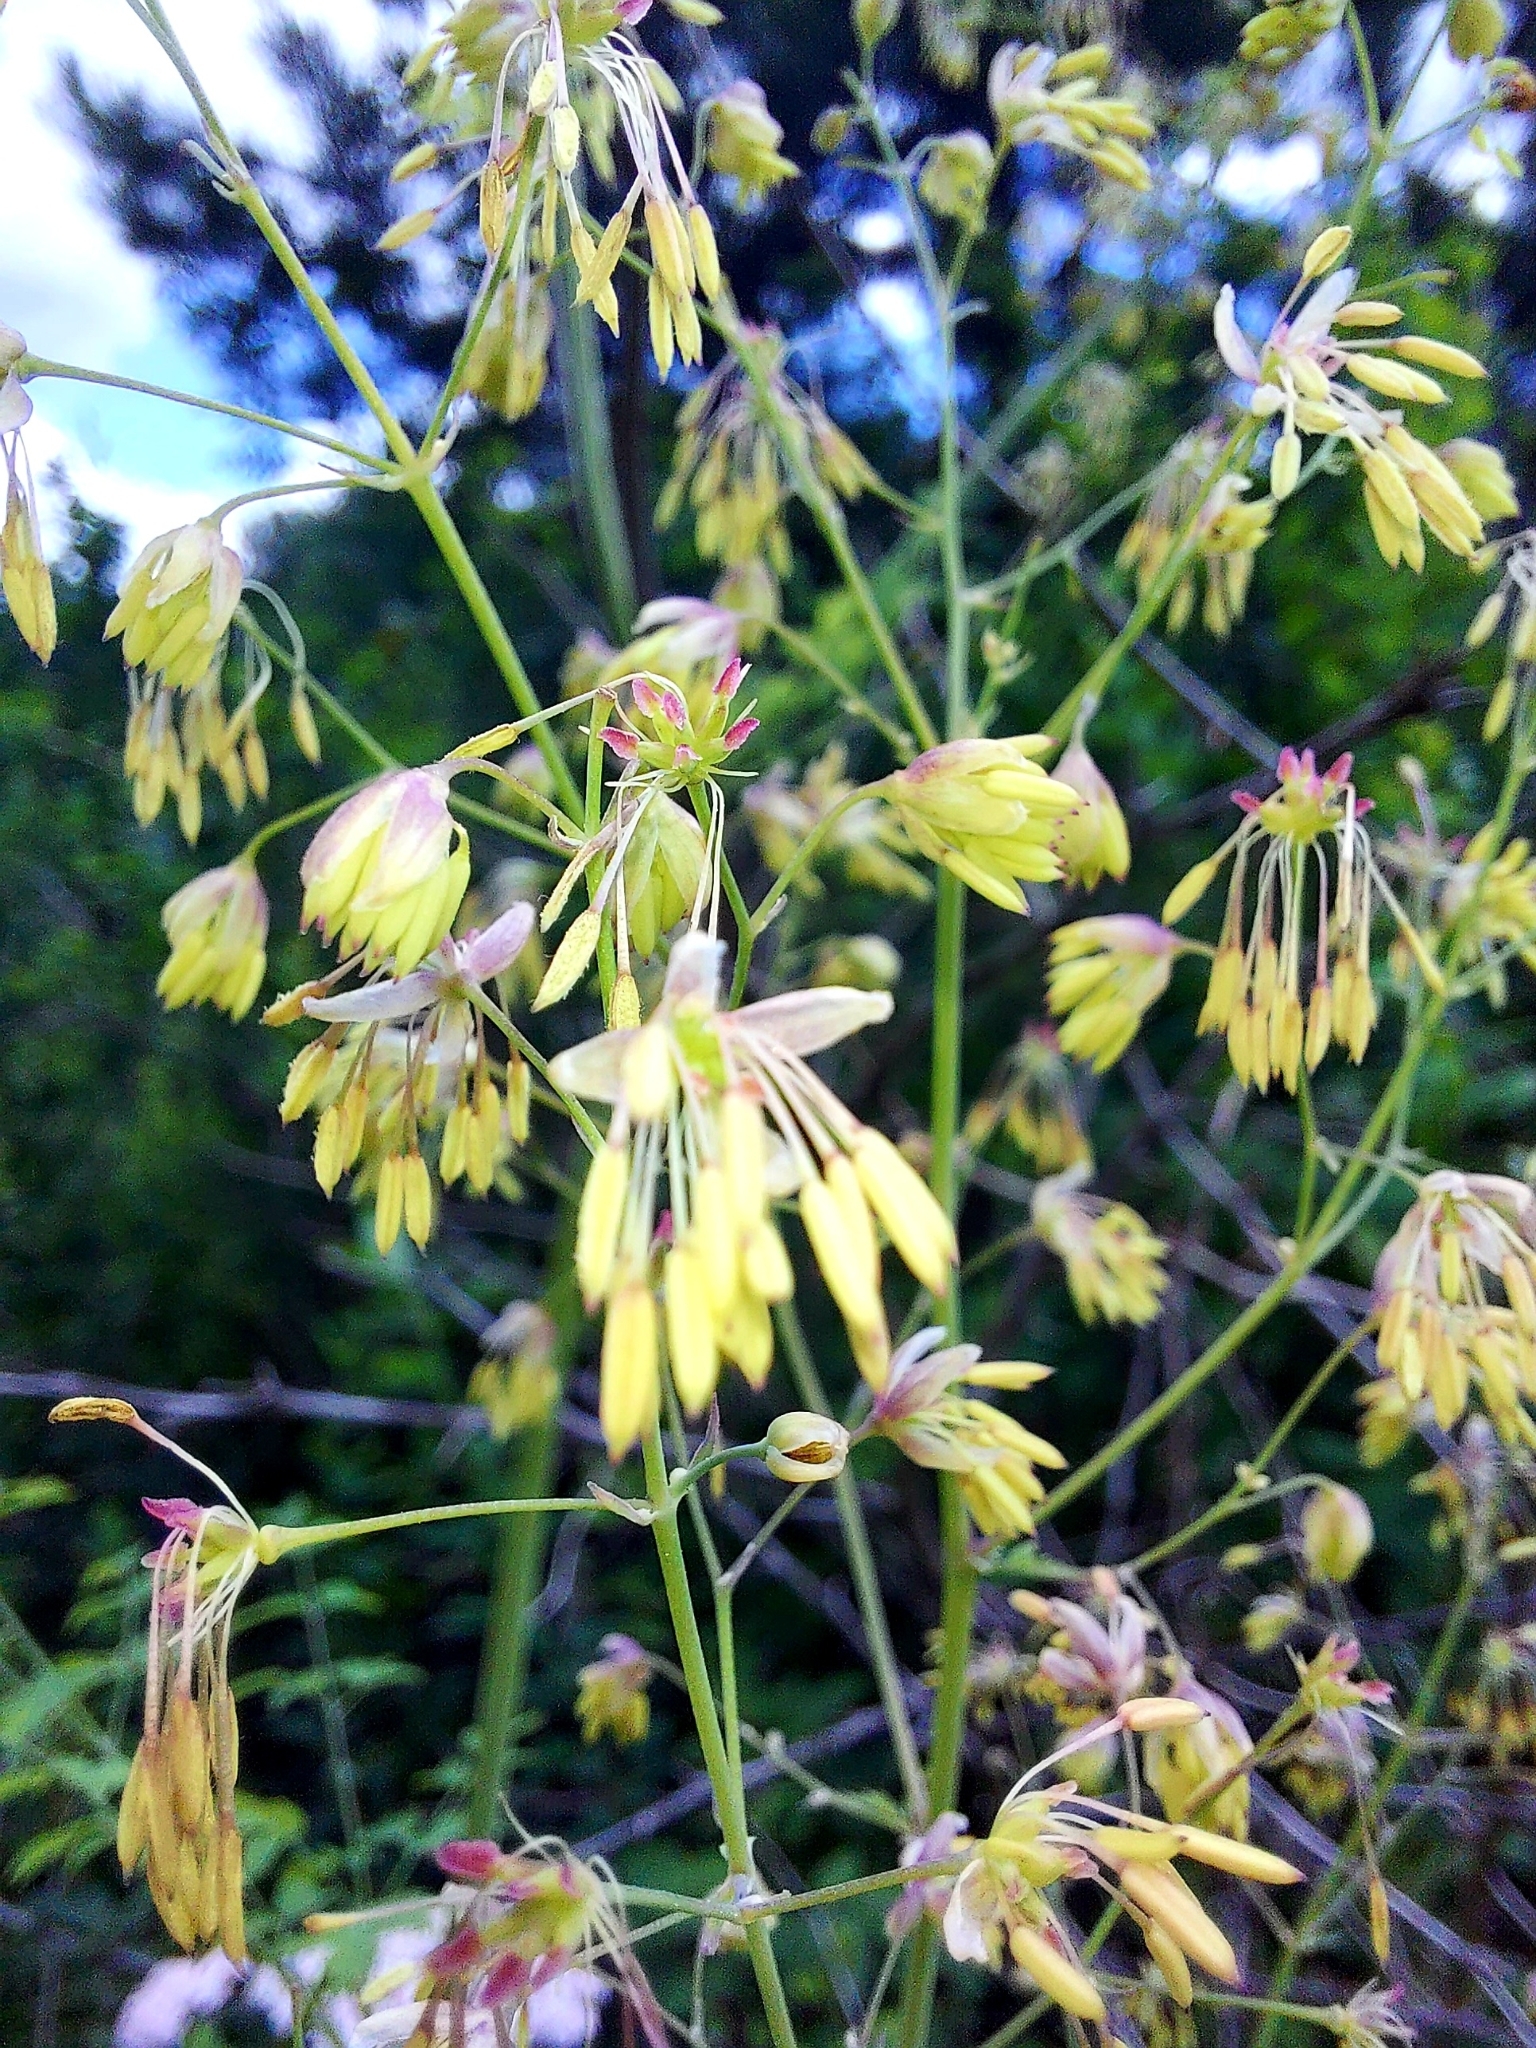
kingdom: Plantae
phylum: Tracheophyta
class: Magnoliopsida
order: Ranunculales
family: Ranunculaceae
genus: Thalictrum
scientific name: Thalictrum simplex
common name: Small meadow-rue
